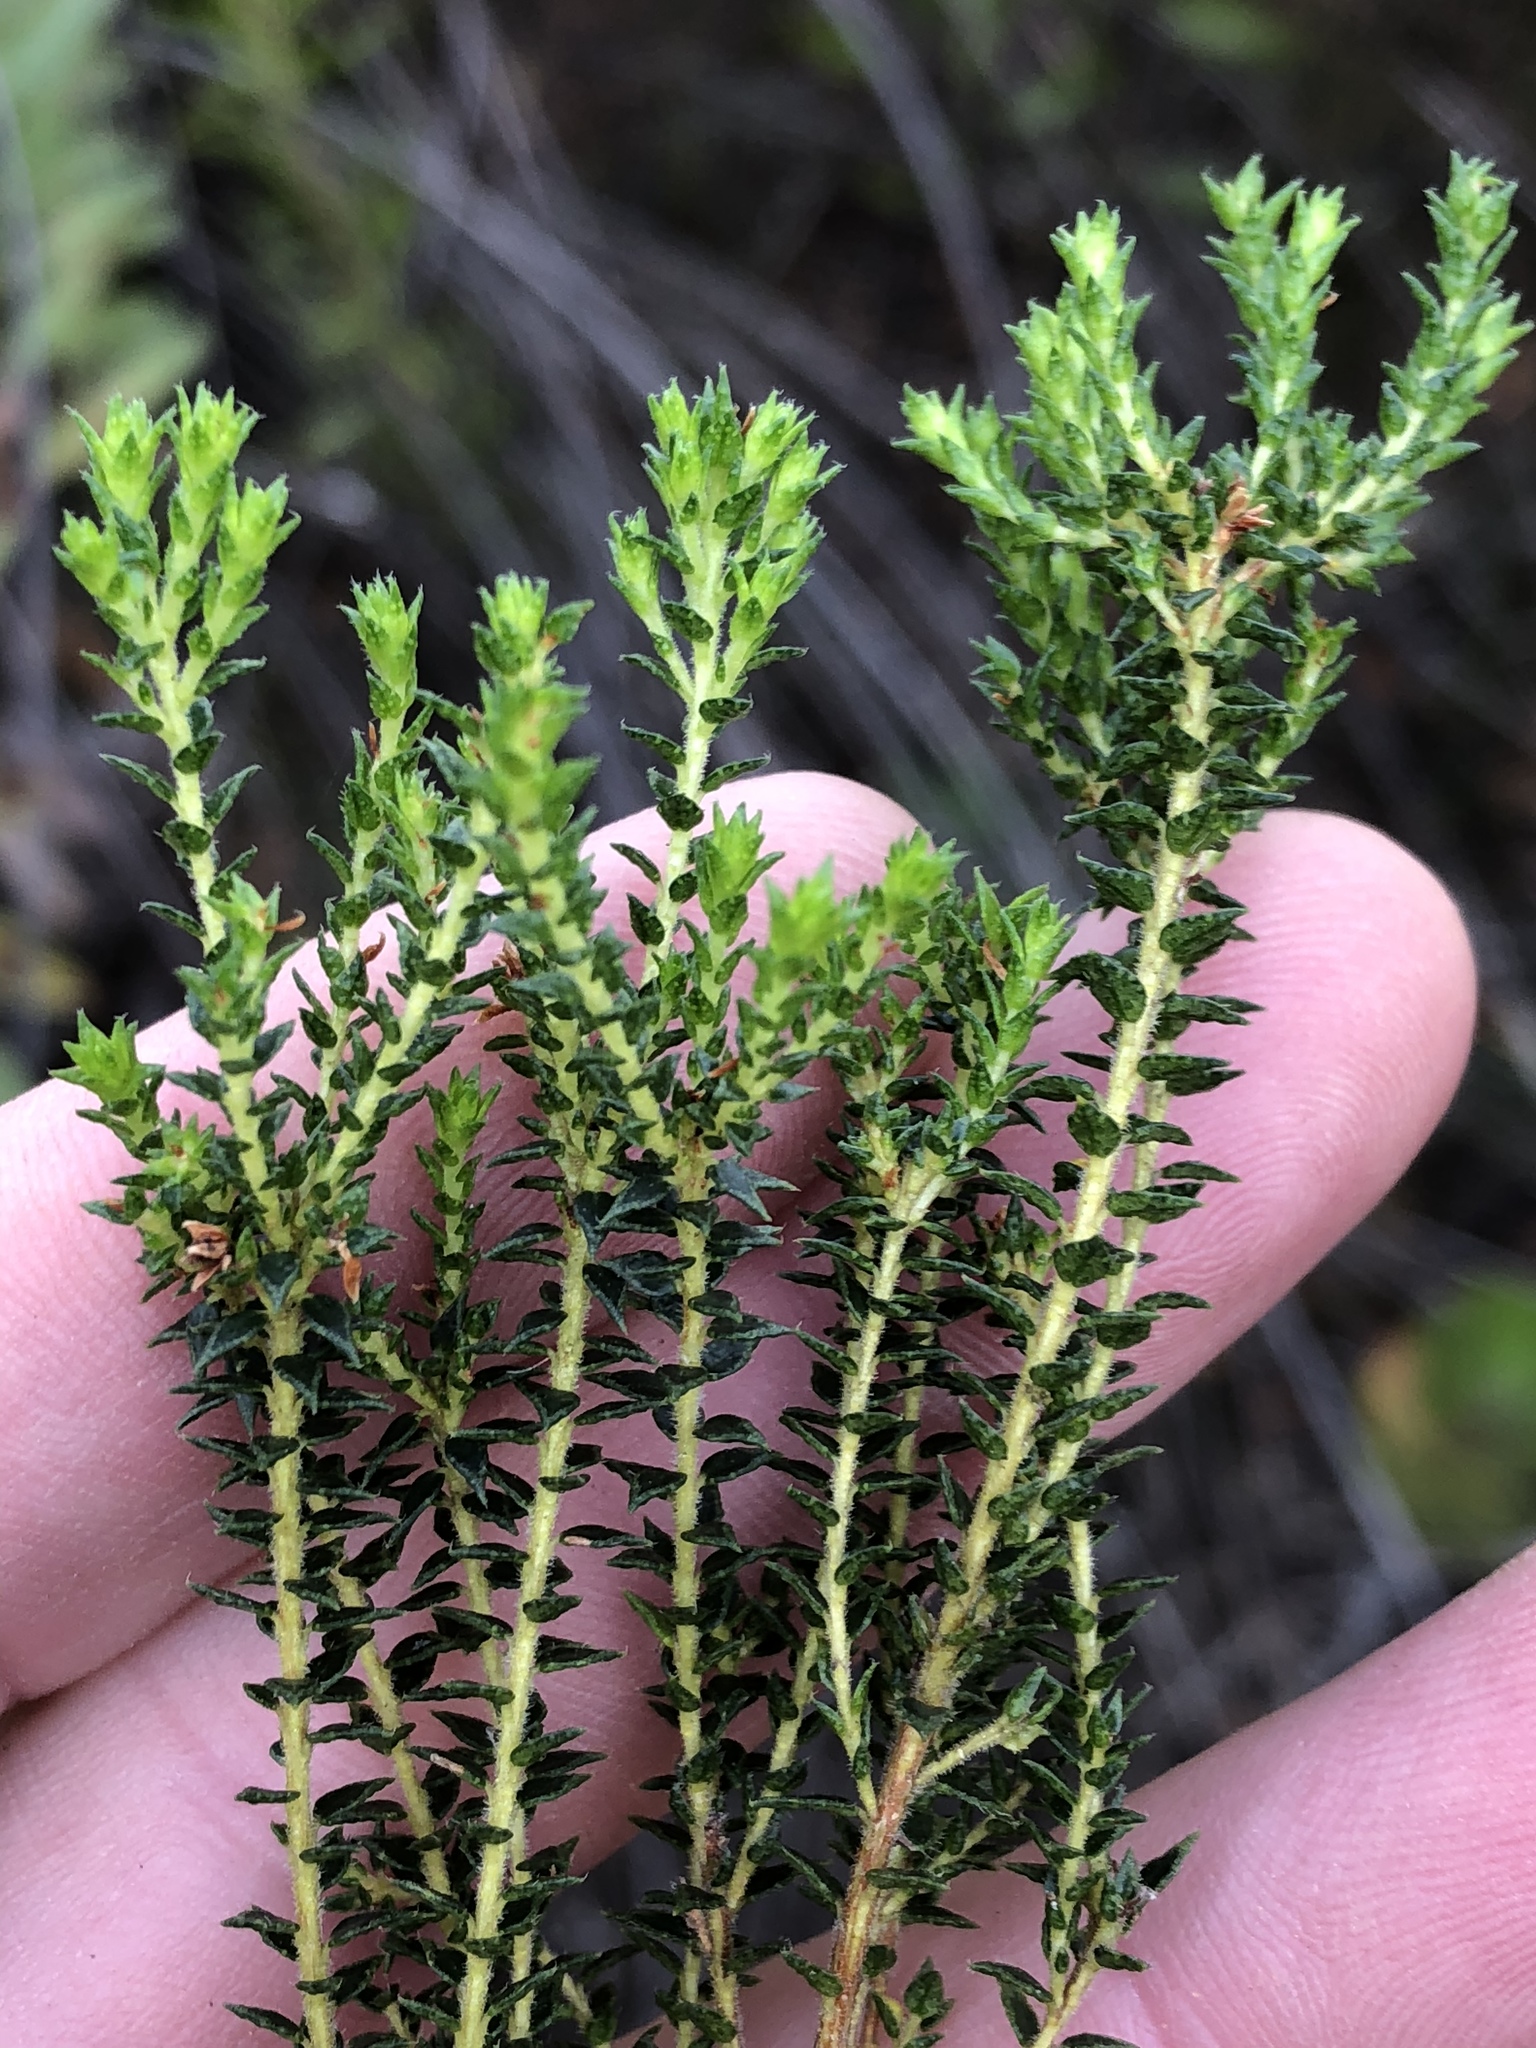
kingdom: Plantae
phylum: Tracheophyta
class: Magnoliopsida
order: Sapindales
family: Rutaceae
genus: Agathosma
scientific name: Agathosma cerefolia
